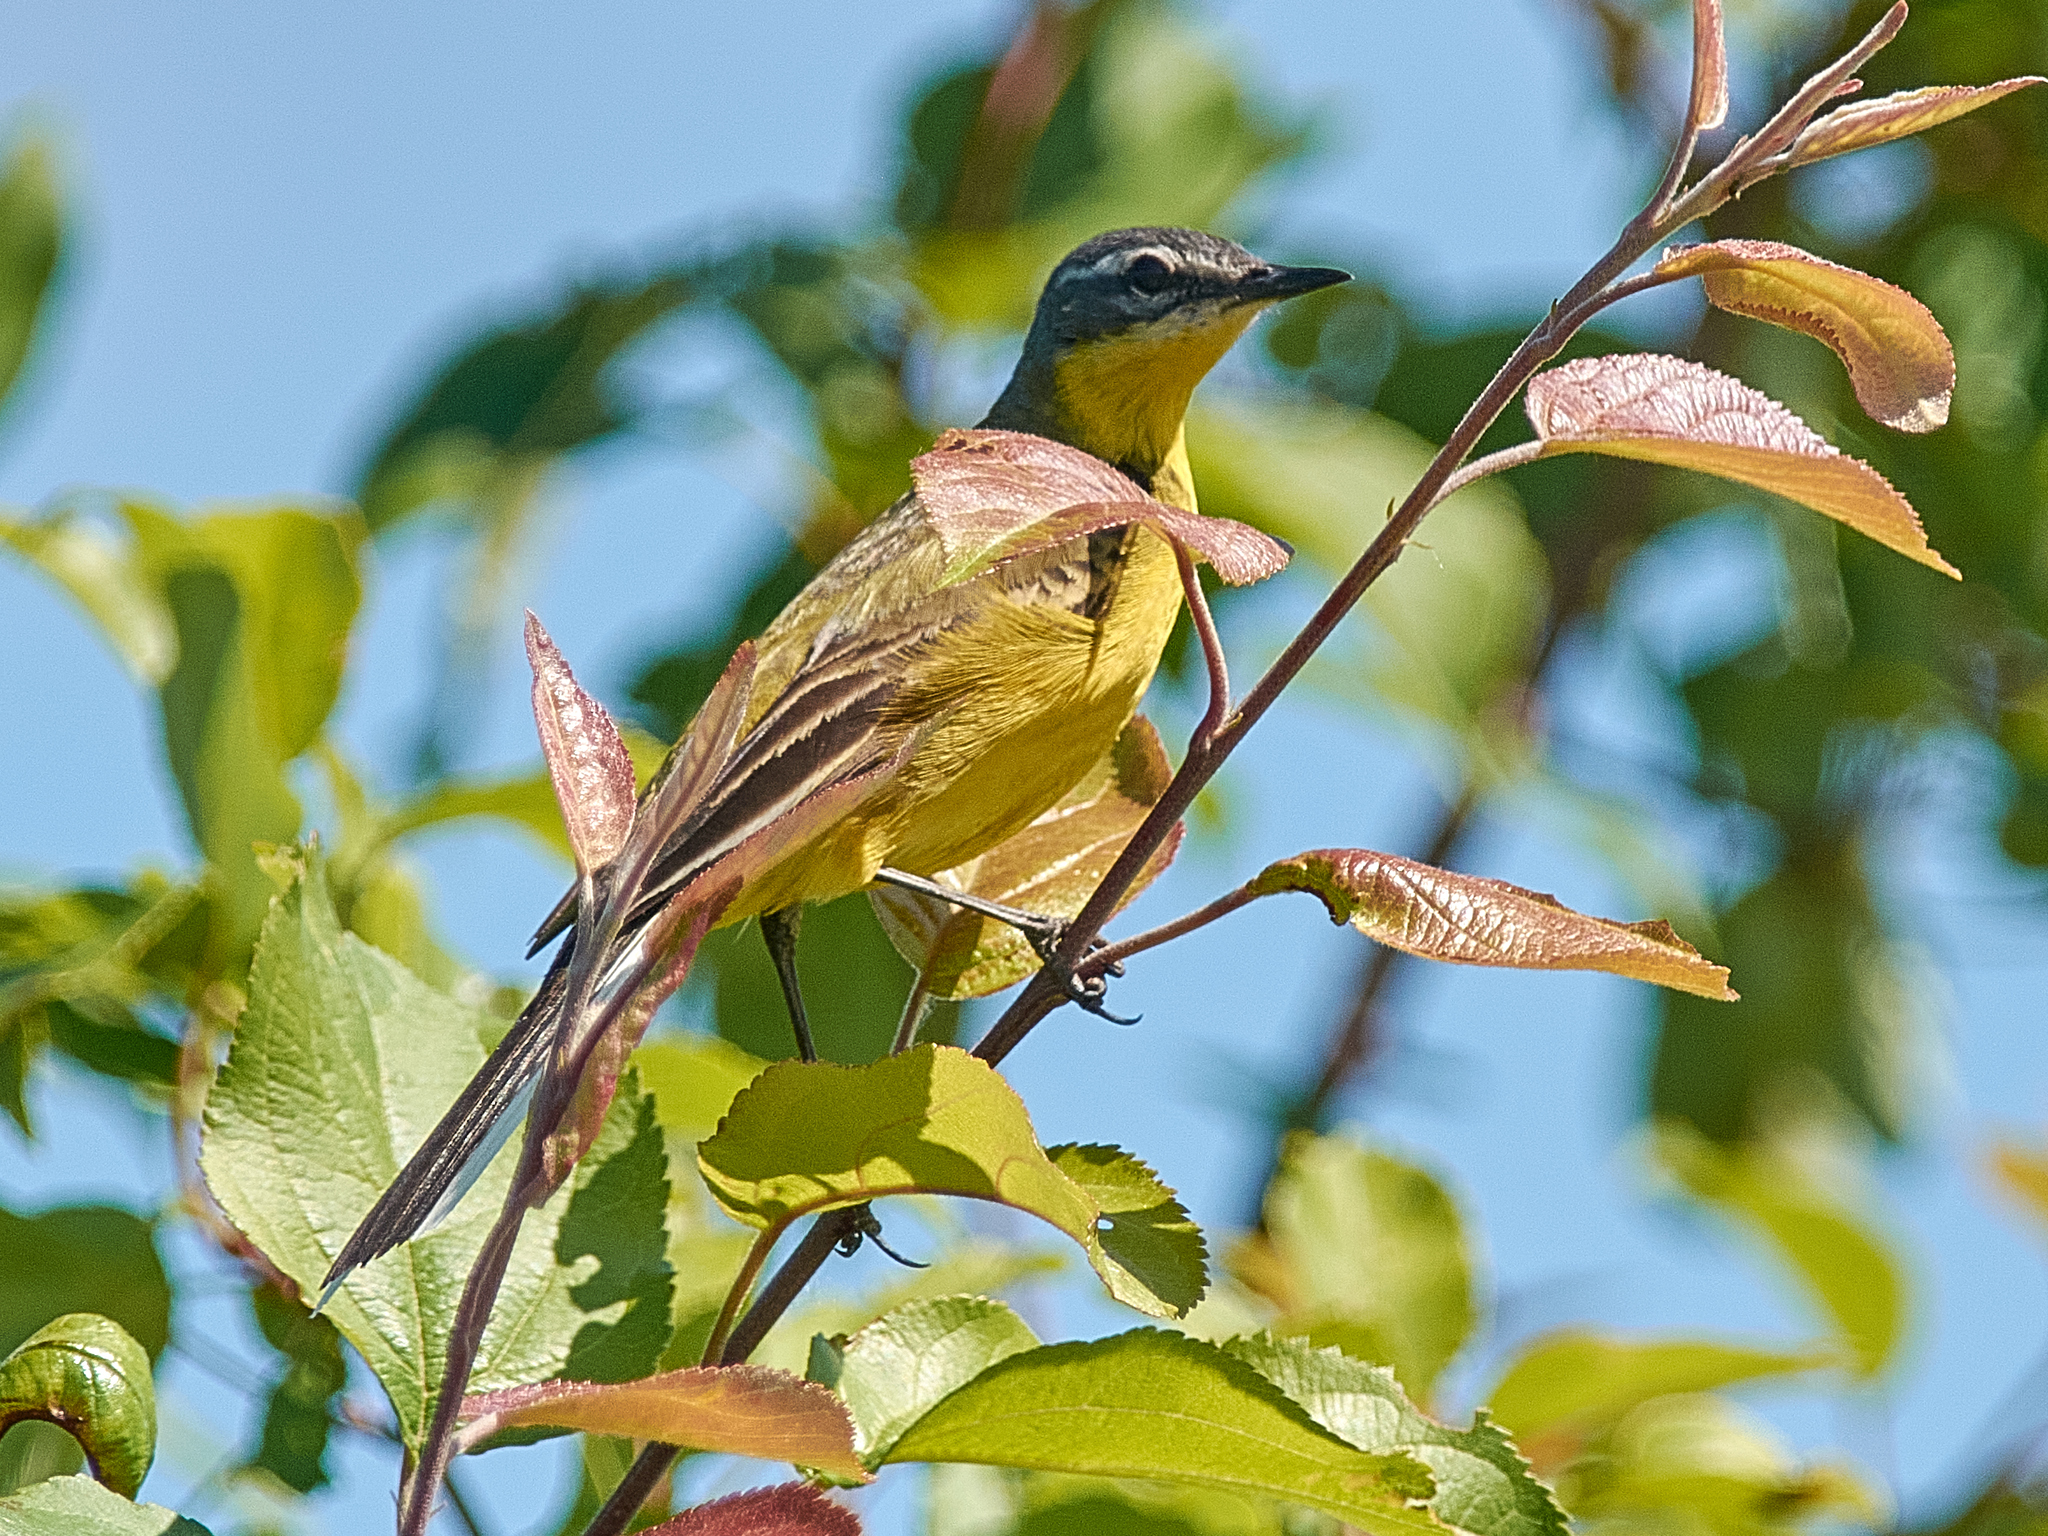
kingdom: Animalia
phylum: Chordata
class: Aves
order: Passeriformes
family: Motacillidae
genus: Motacilla
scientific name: Motacilla flava
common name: Western yellow wagtail
